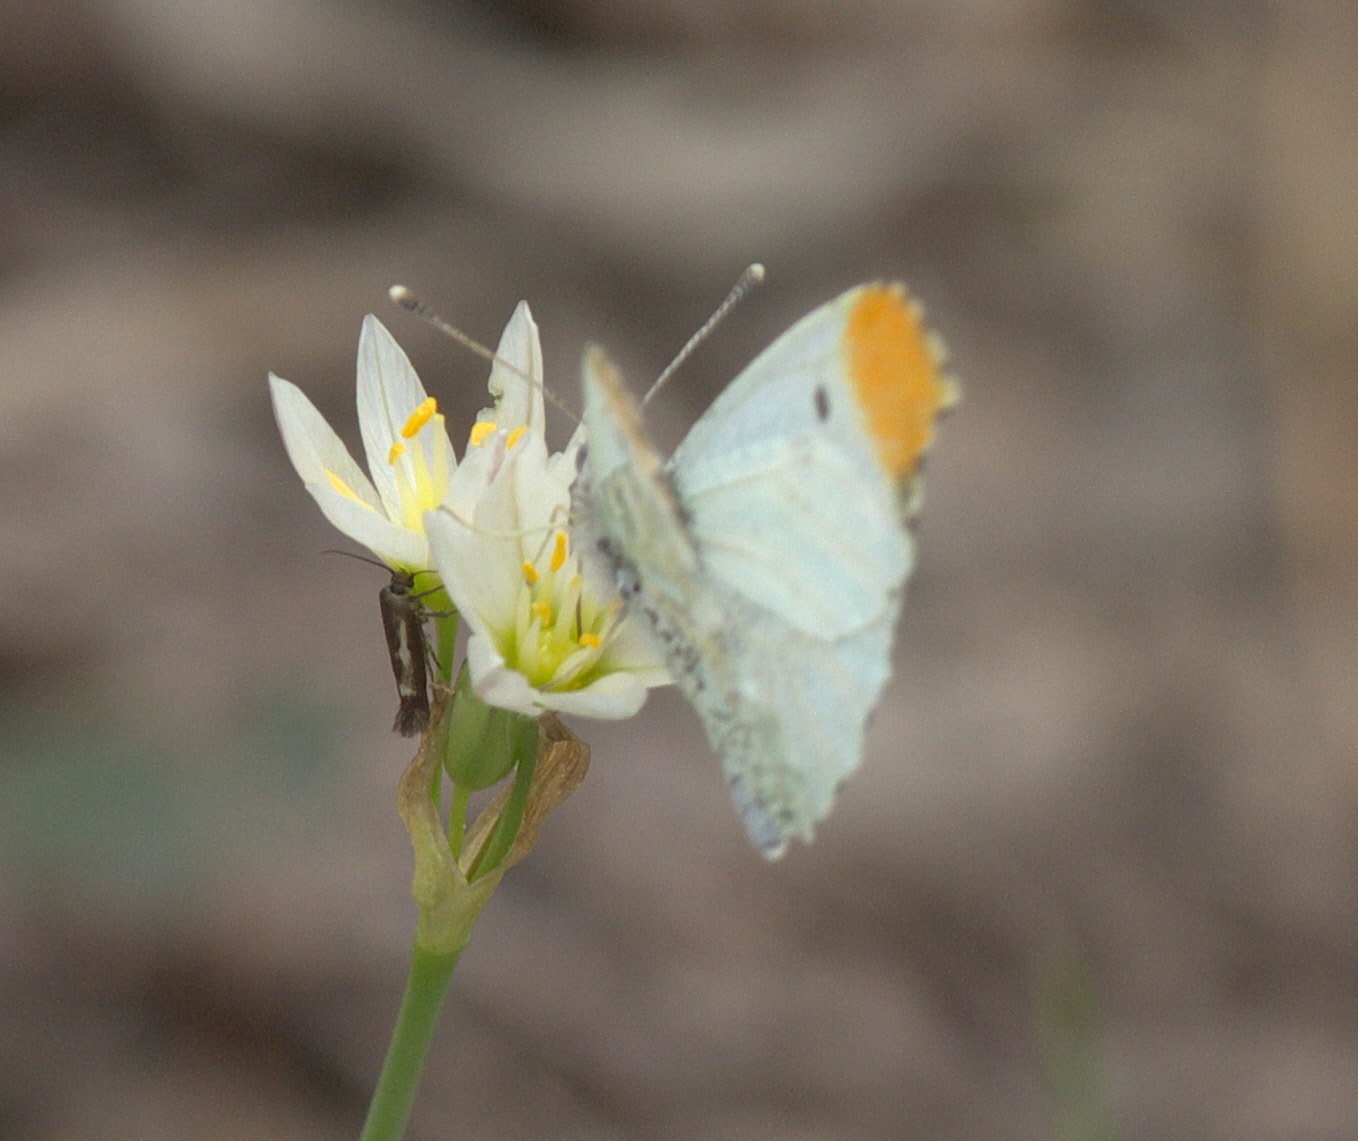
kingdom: Animalia
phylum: Arthropoda
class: Insecta
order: Lepidoptera
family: Pieridae
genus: Anthocharis
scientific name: Anthocharis midea
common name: Falcate orangetip
